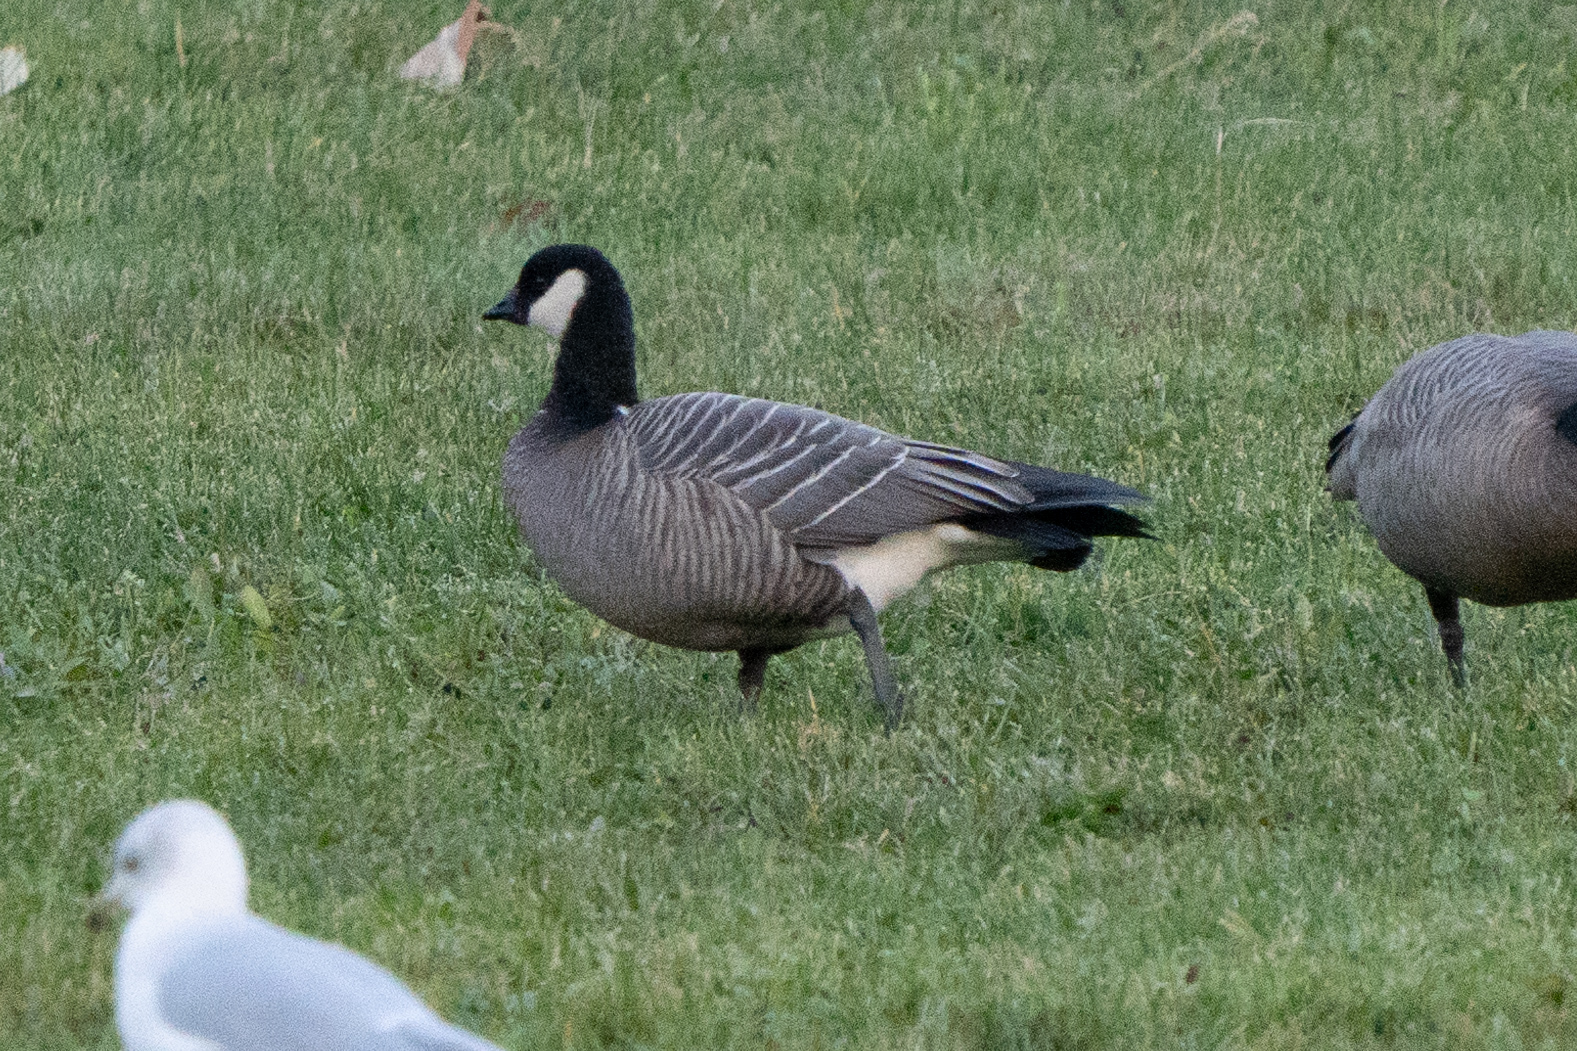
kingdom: Animalia
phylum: Chordata
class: Aves
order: Anseriformes
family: Anatidae
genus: Branta
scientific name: Branta hutchinsii
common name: Cackling goose
